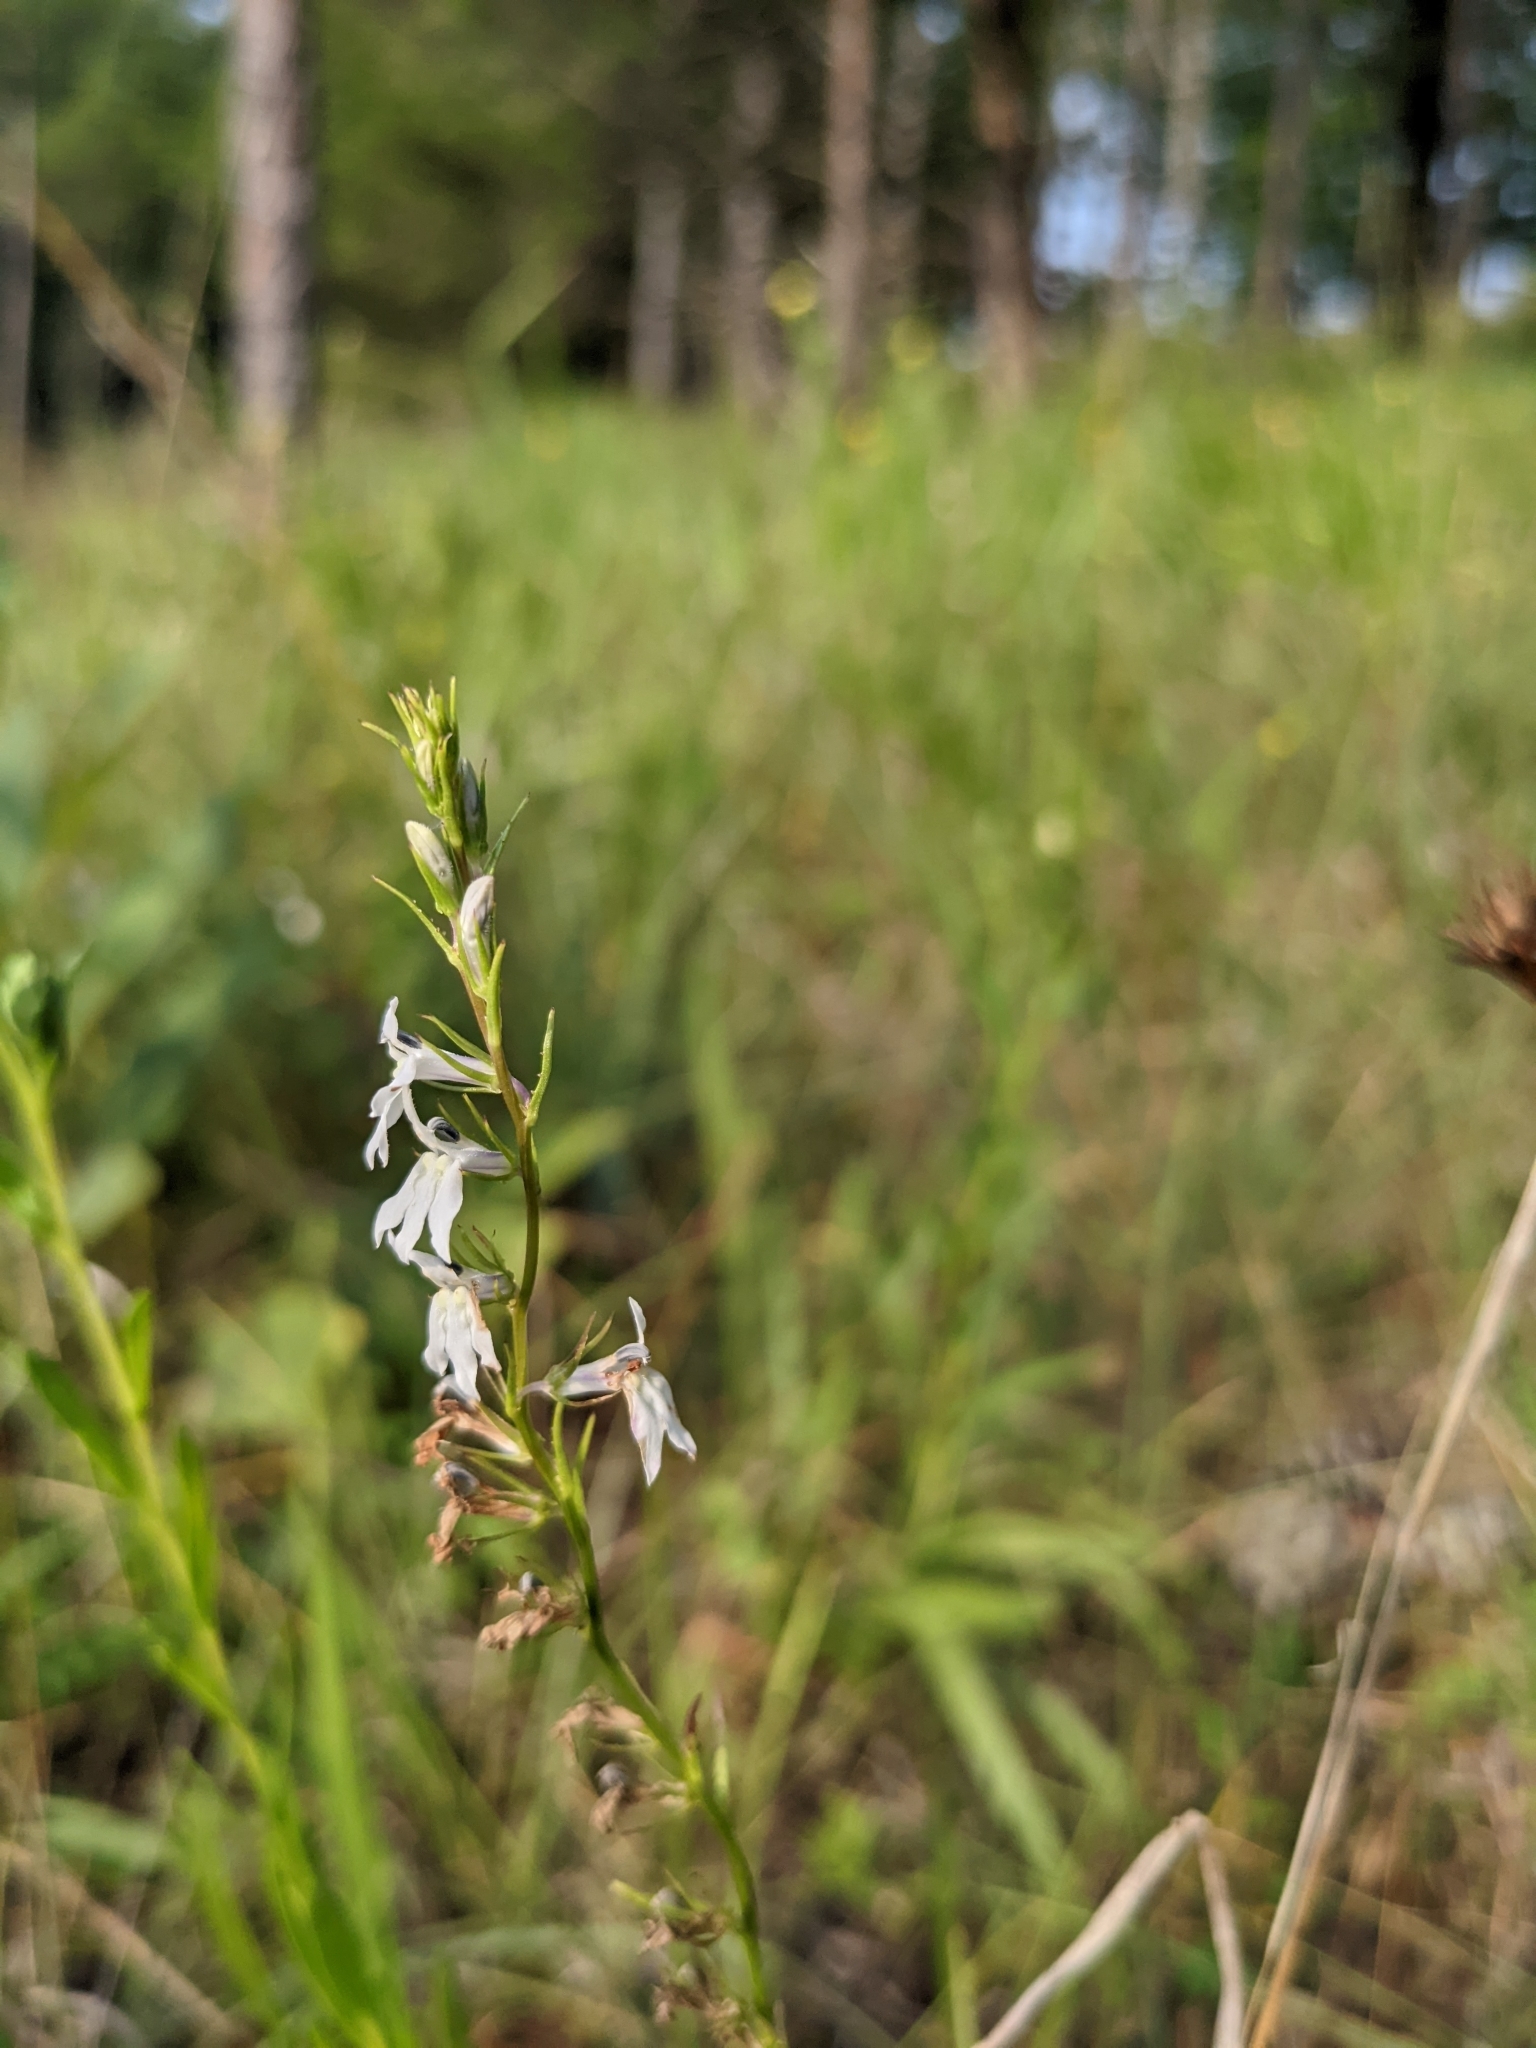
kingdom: Plantae
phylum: Tracheophyta
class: Magnoliopsida
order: Asterales
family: Campanulaceae
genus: Lobelia
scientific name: Lobelia spicata
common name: Pale-spike lobelia
